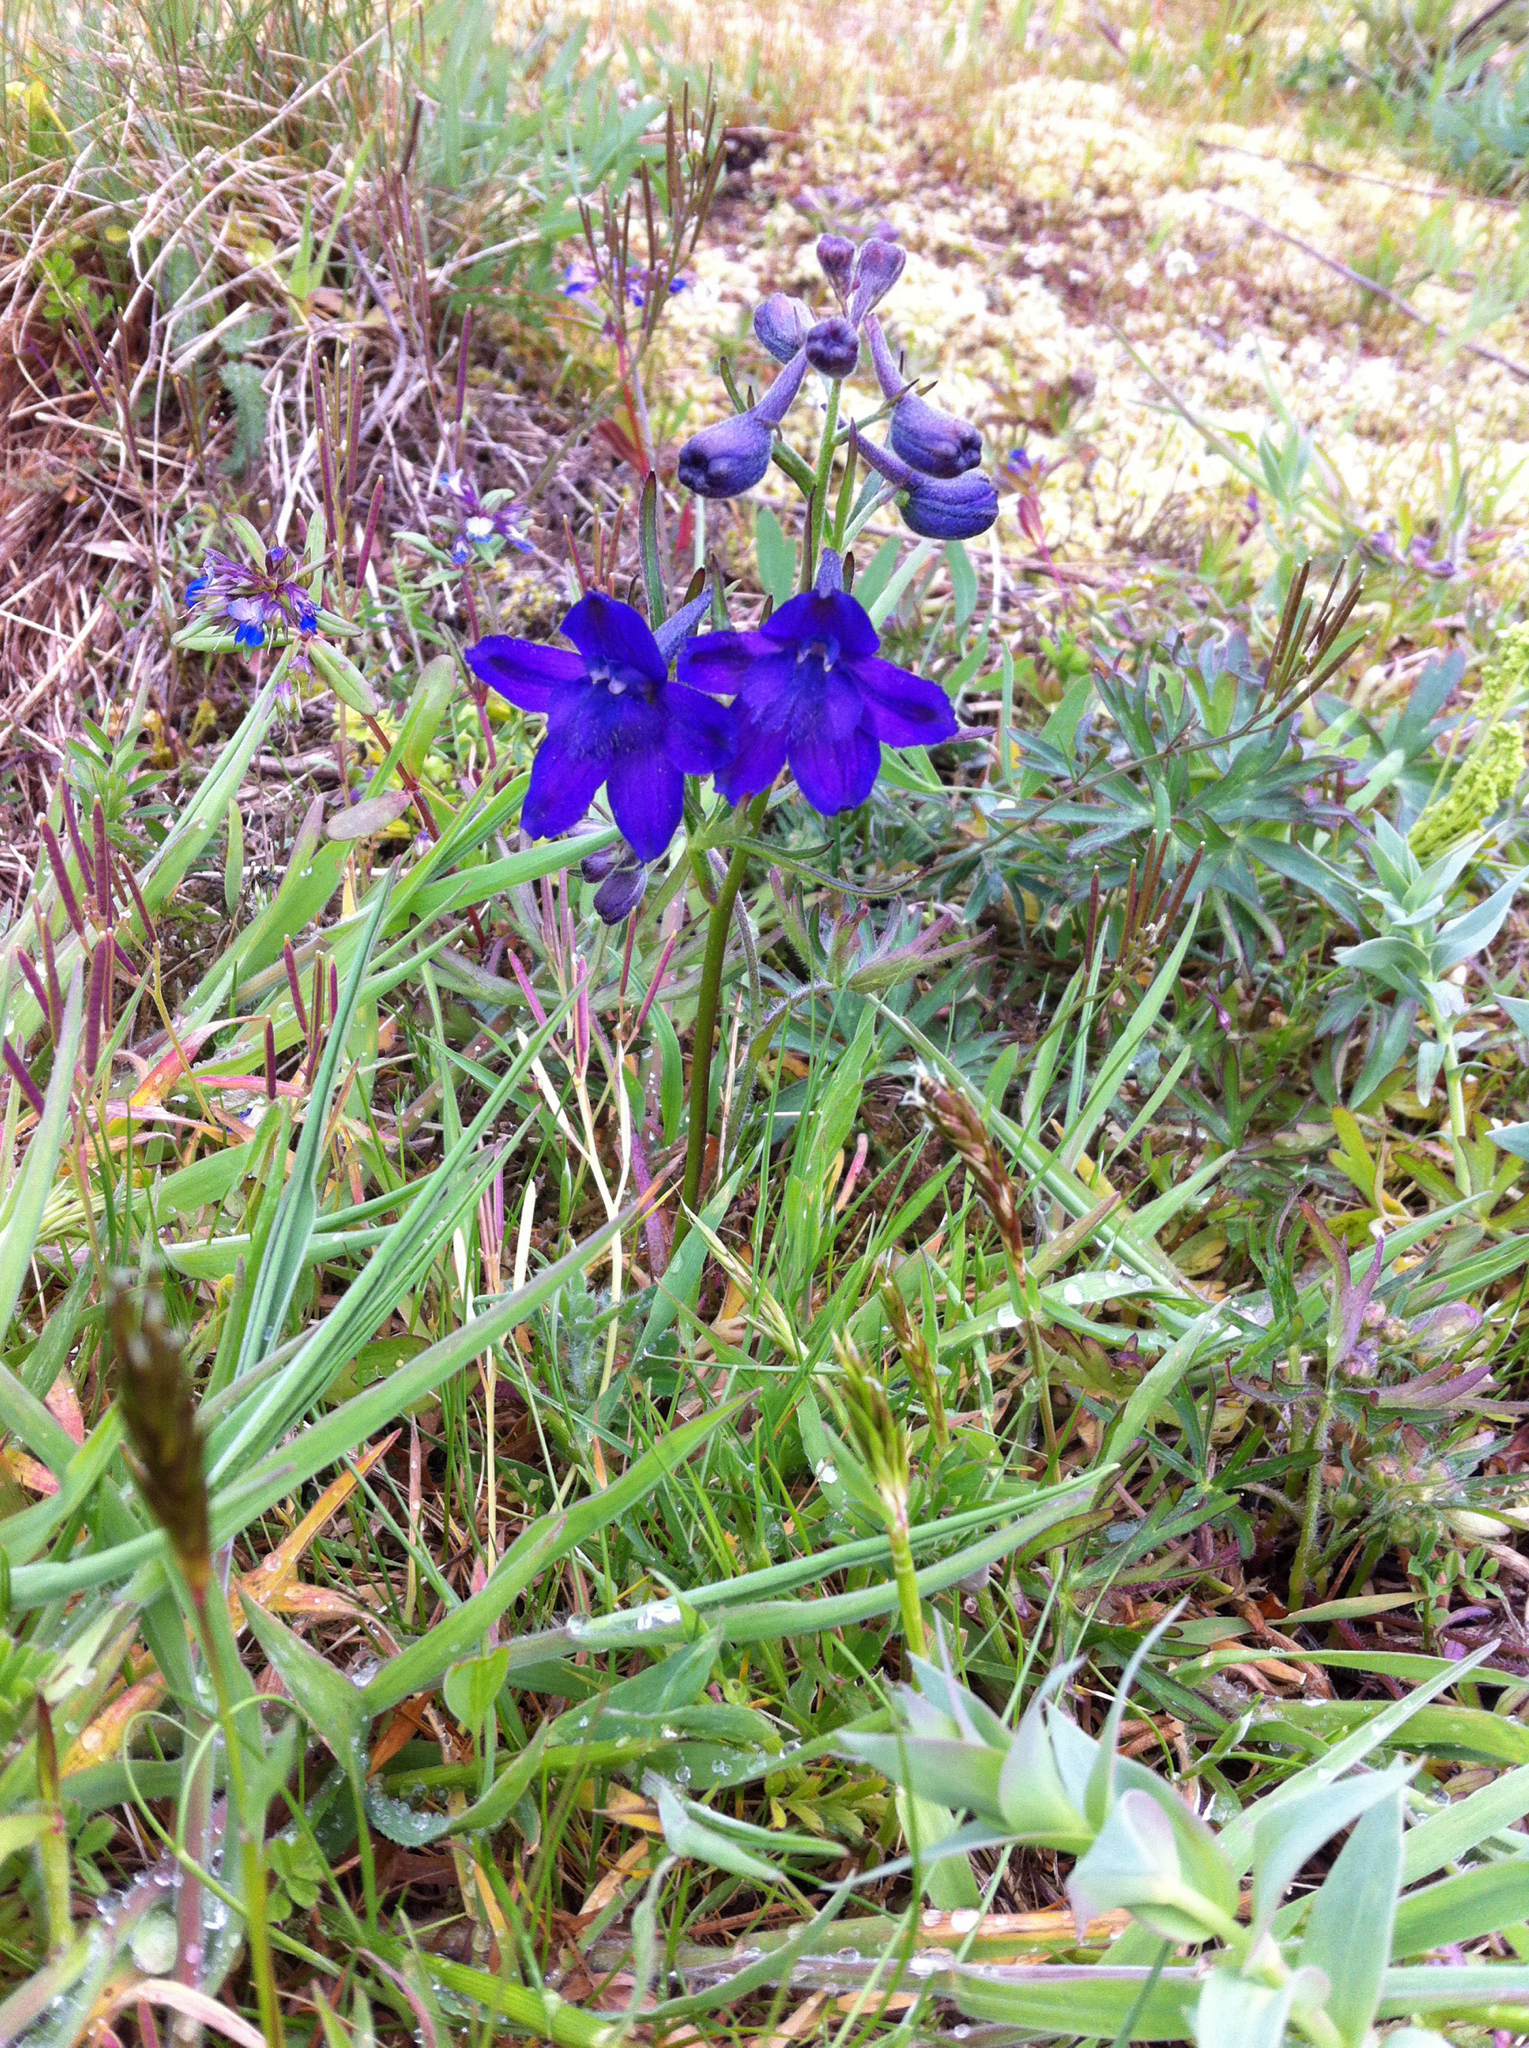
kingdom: Plantae
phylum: Tracheophyta
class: Magnoliopsida
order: Ranunculales
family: Ranunculaceae
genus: Delphinium
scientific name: Delphinium menziesii
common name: Menzies's larkspur
